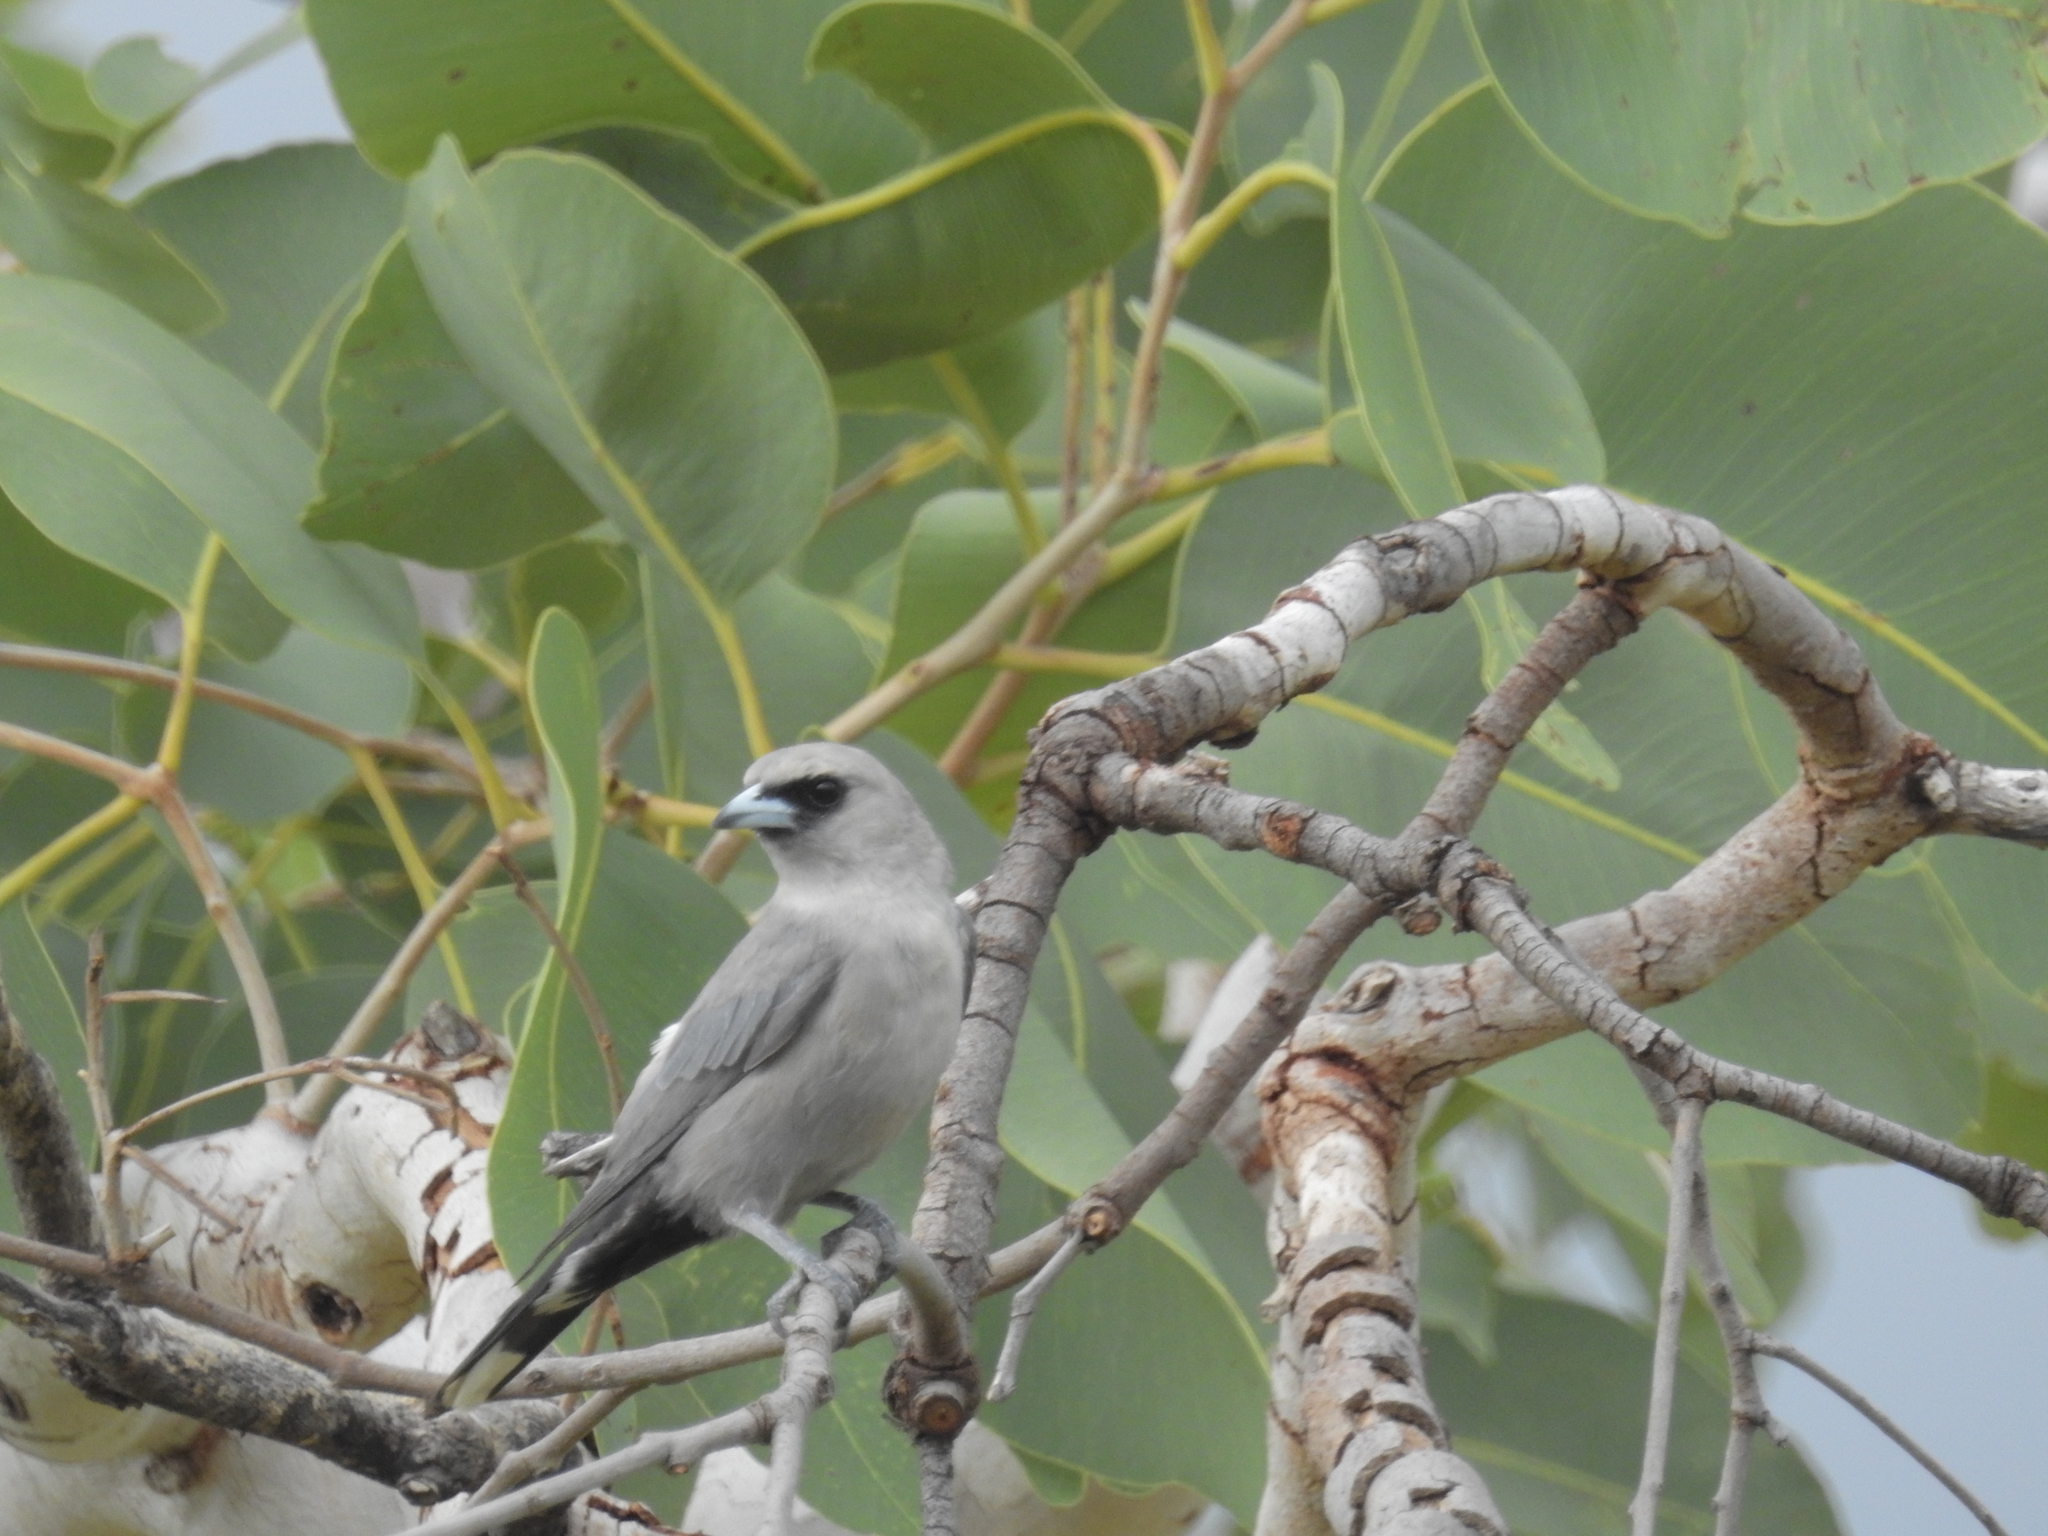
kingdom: Animalia
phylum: Chordata
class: Aves
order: Passeriformes
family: Artamidae
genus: Artamus
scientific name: Artamus cinereus
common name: Black-faced woodswallow
